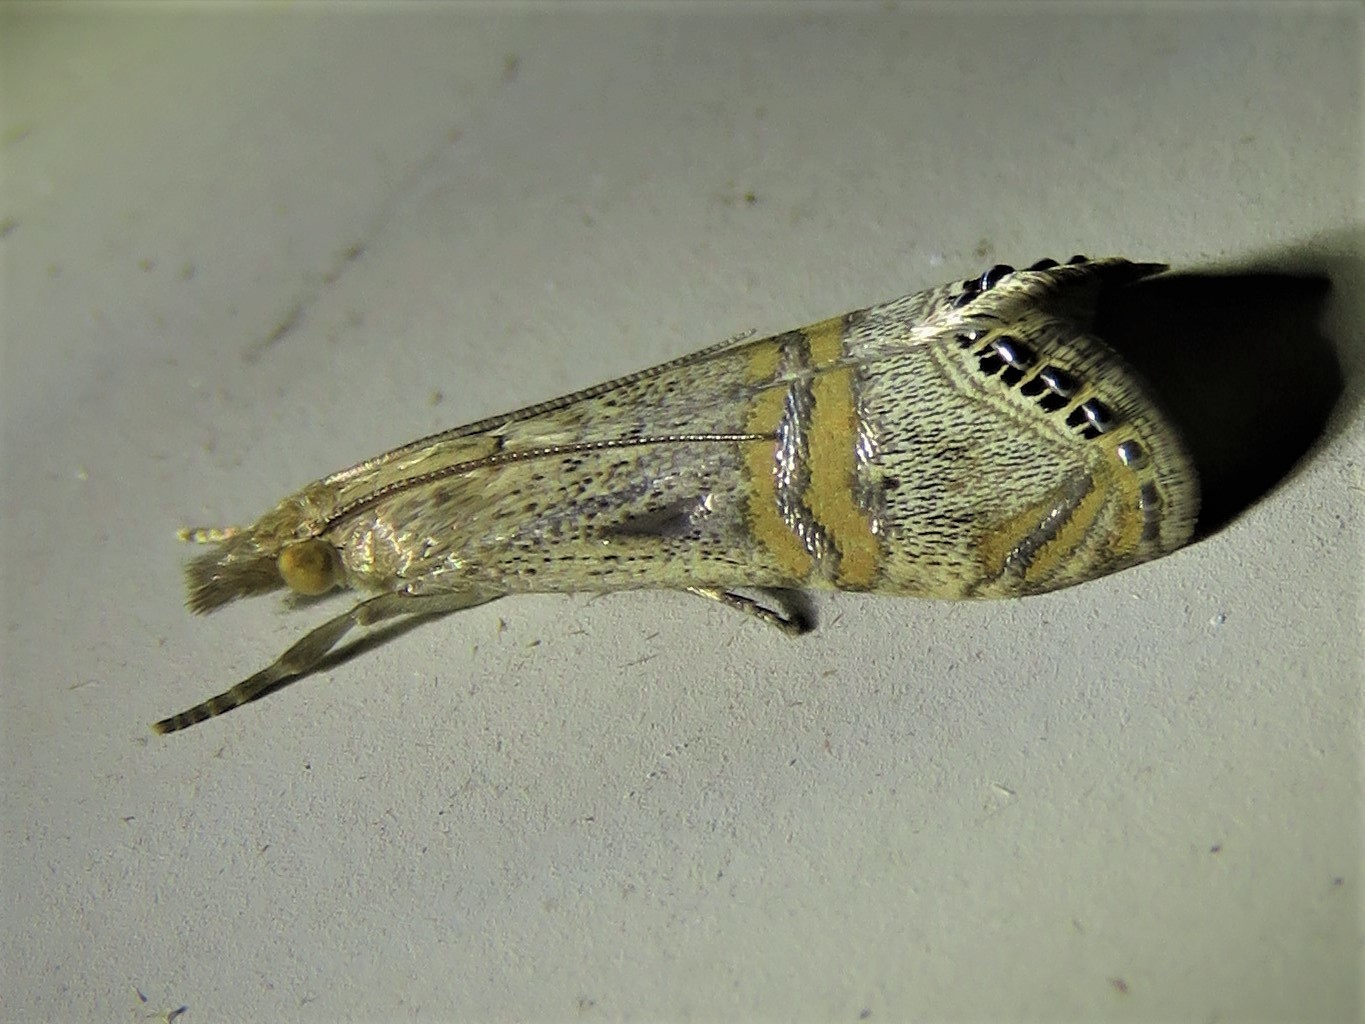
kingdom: Animalia
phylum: Arthropoda
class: Insecta
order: Lepidoptera
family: Crambidae
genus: Euchromius
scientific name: Euchromius ocellea
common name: Necklace veneer moth
